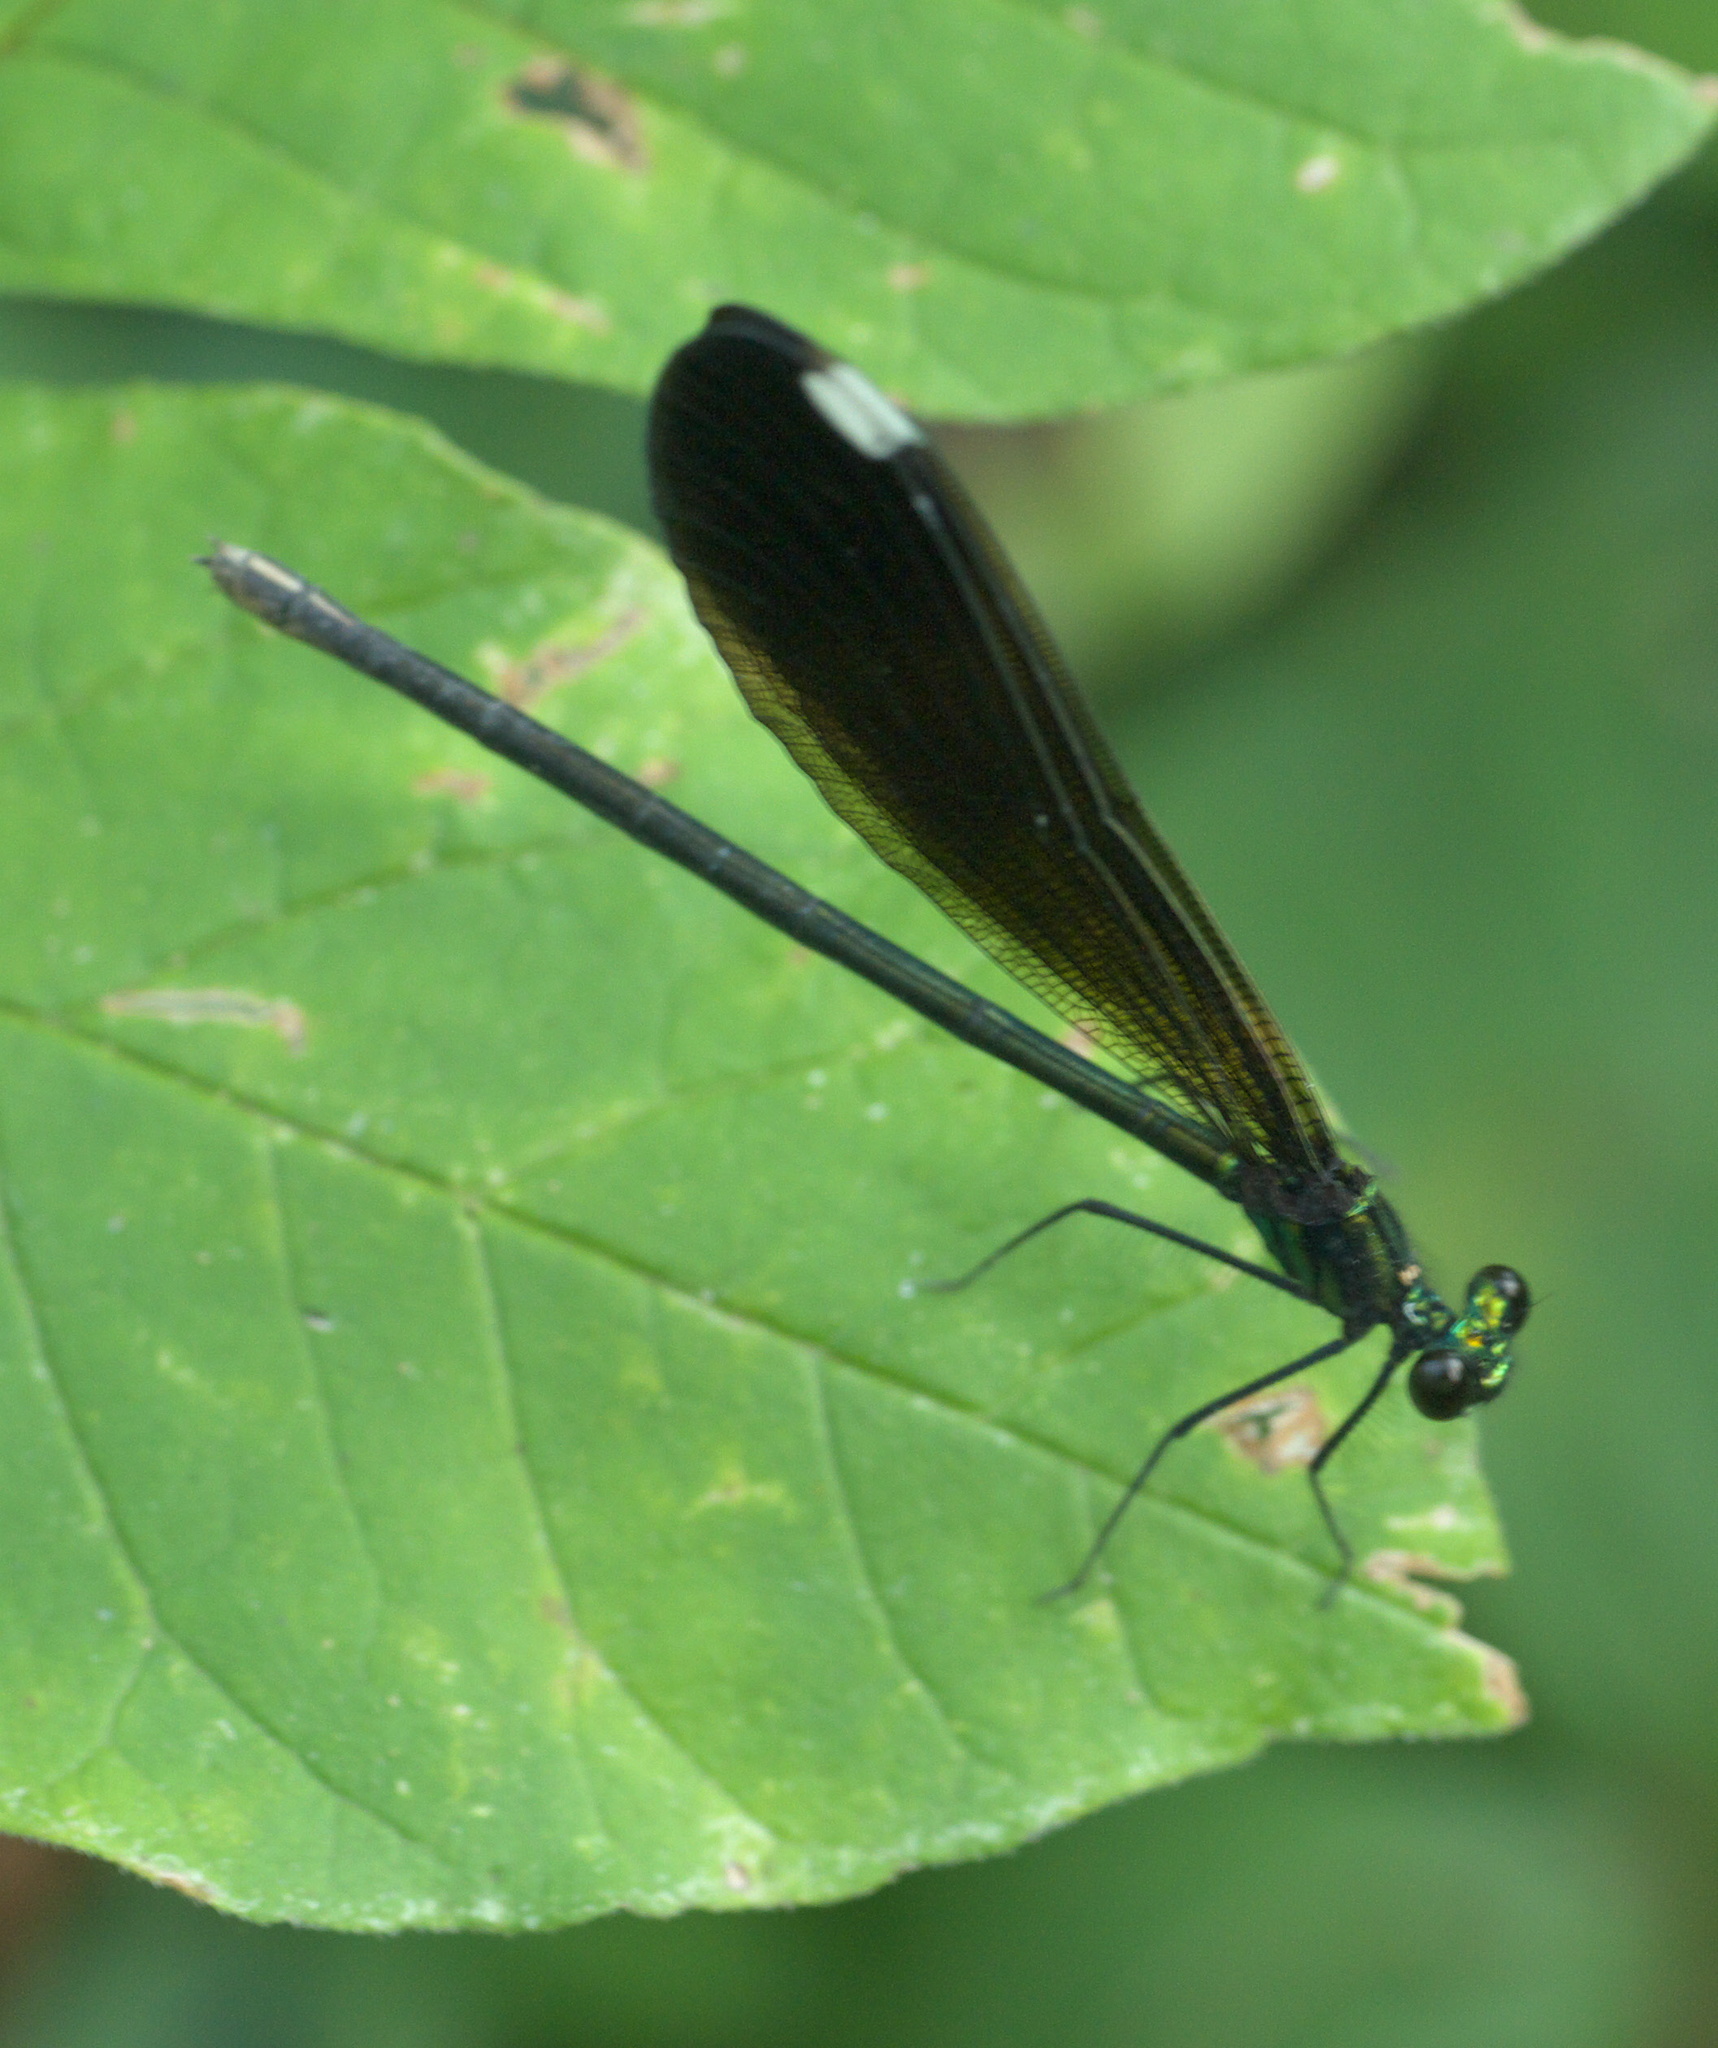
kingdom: Animalia
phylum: Arthropoda
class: Insecta
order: Odonata
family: Calopterygidae
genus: Calopteryx
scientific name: Calopteryx maculata
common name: Ebony jewelwing
